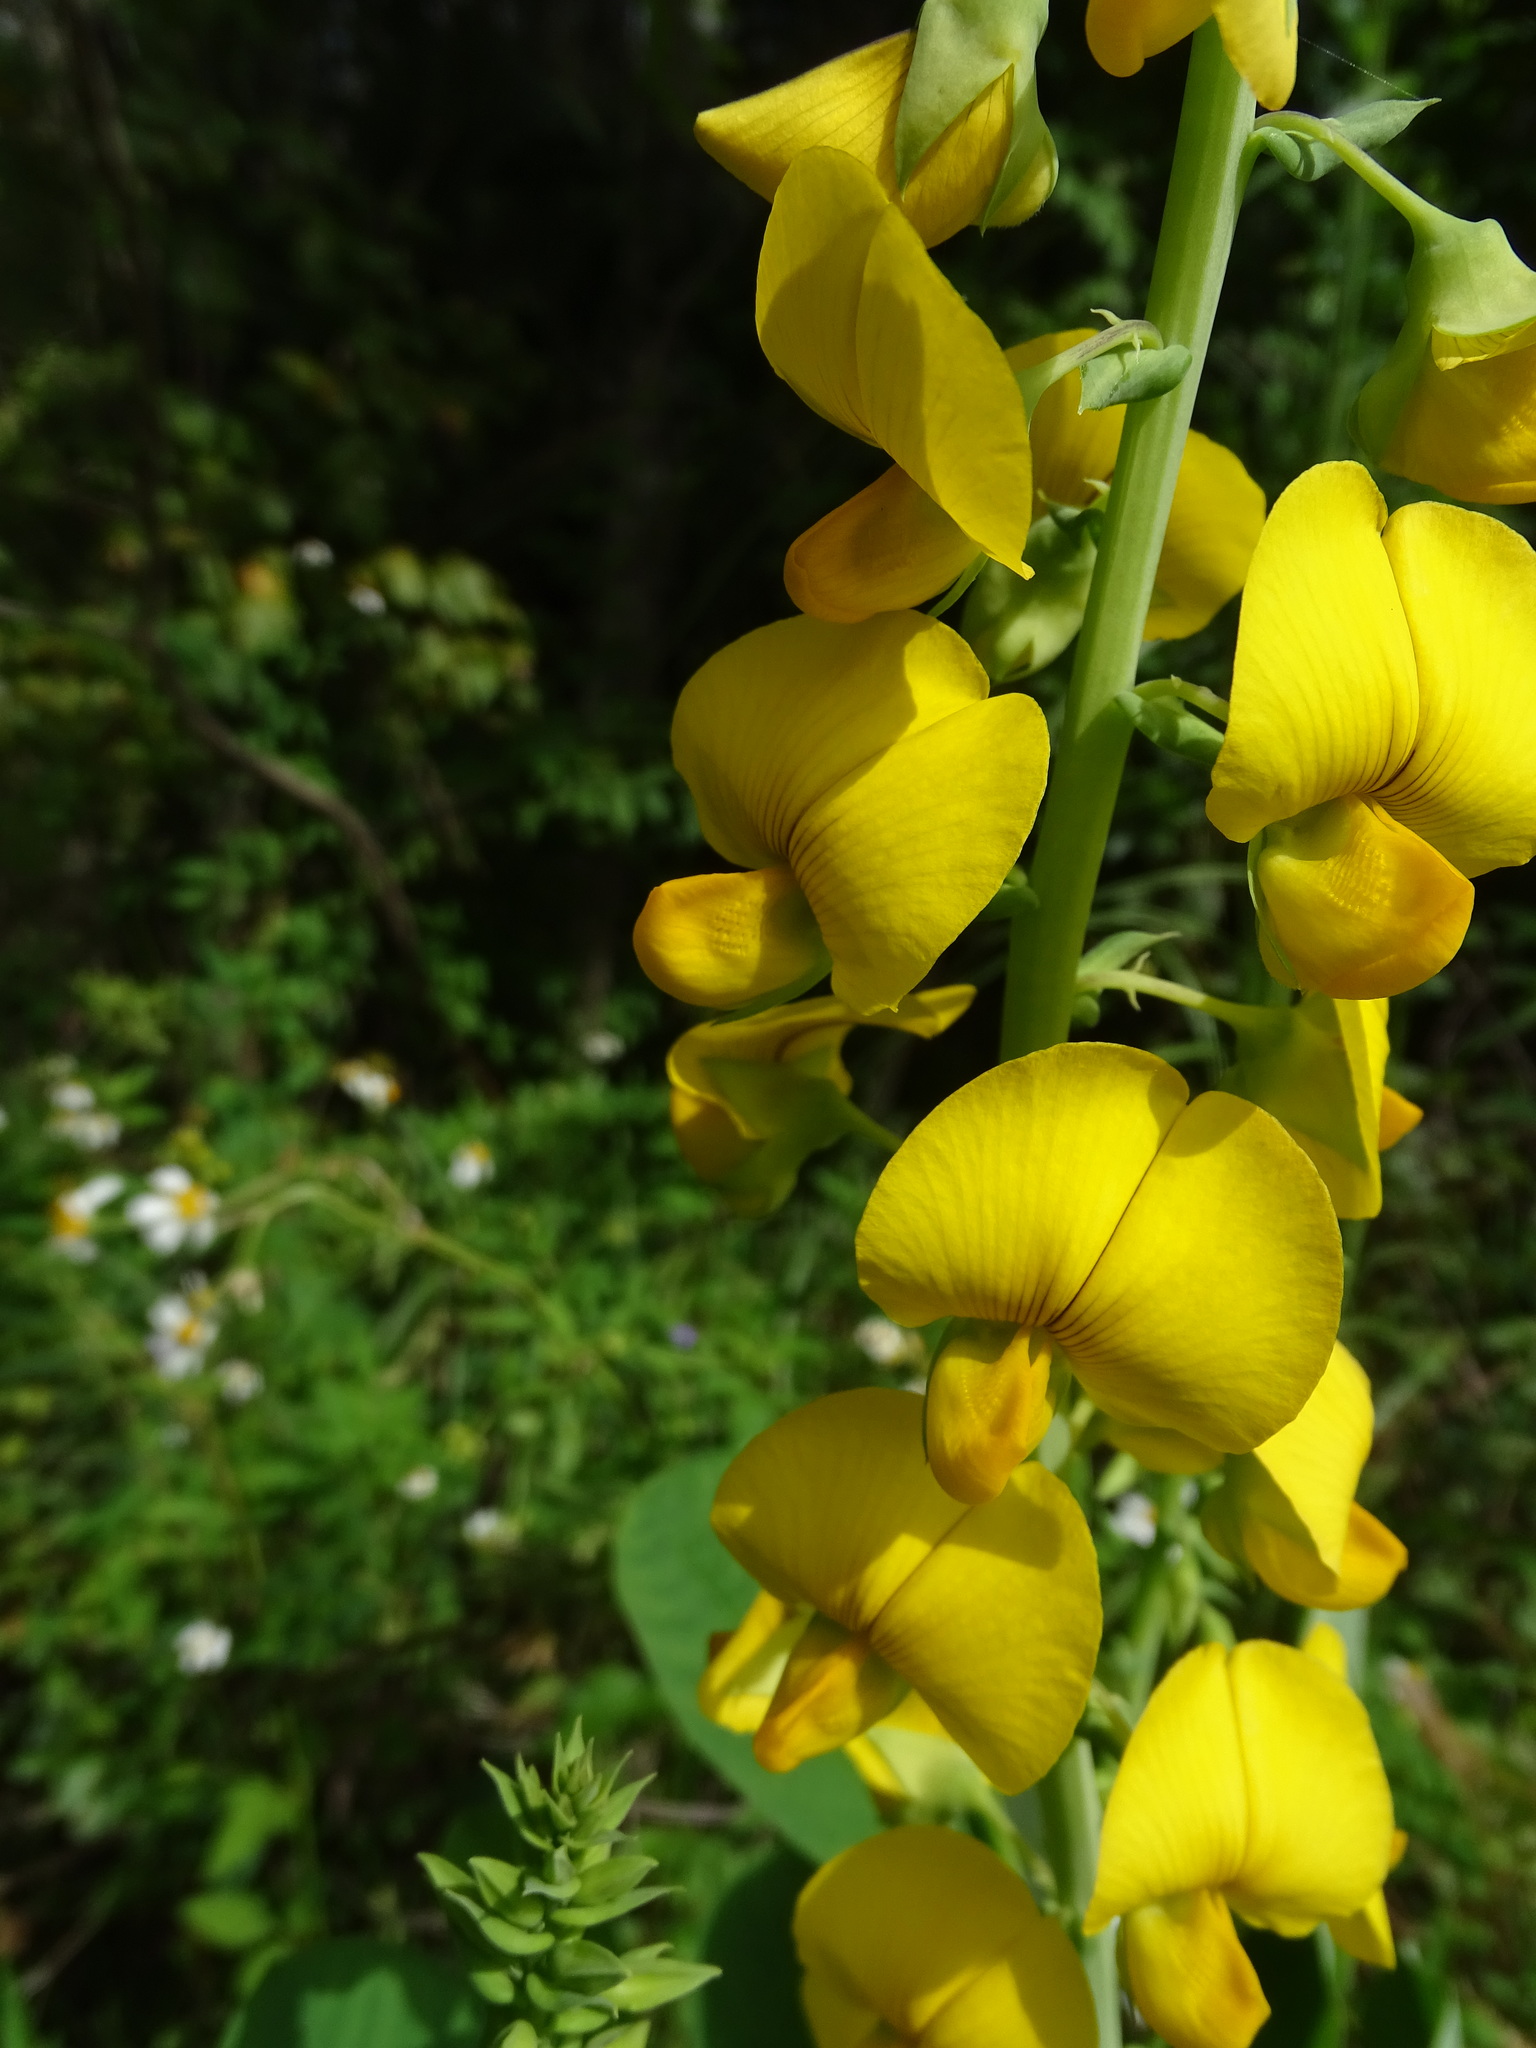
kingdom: Plantae
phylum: Tracheophyta
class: Magnoliopsida
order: Fabales
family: Fabaceae
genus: Crotalaria
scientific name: Crotalaria spectabilis
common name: Showy rattlebox
